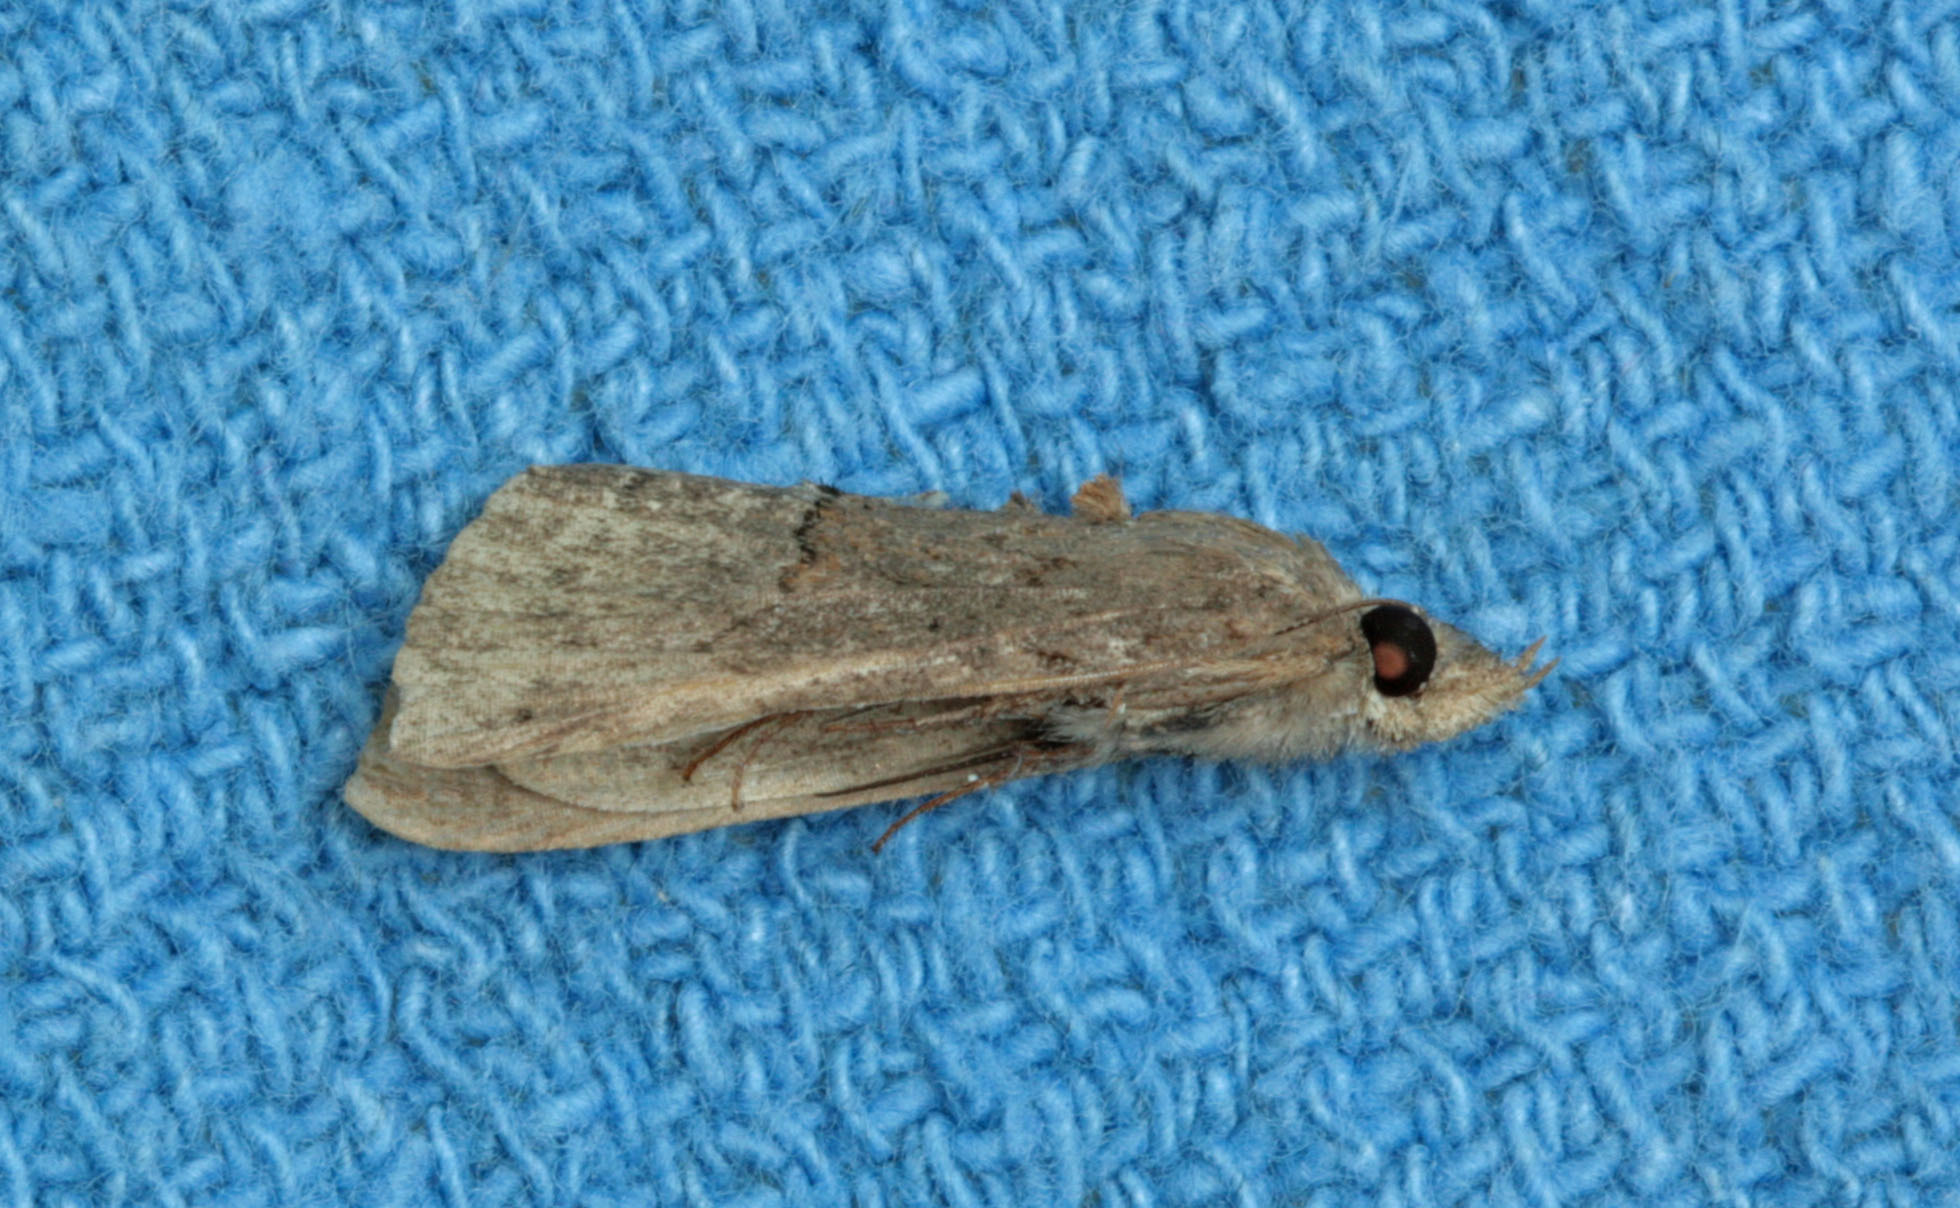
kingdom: Animalia
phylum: Arthropoda
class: Insecta
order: Lepidoptera
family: Erebidae
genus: Hypena
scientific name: Hypena scabra
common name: Green cloverworm
